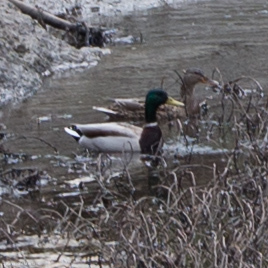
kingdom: Animalia
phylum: Chordata
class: Aves
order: Anseriformes
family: Anatidae
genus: Anas
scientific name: Anas platyrhynchos
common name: Mallard
